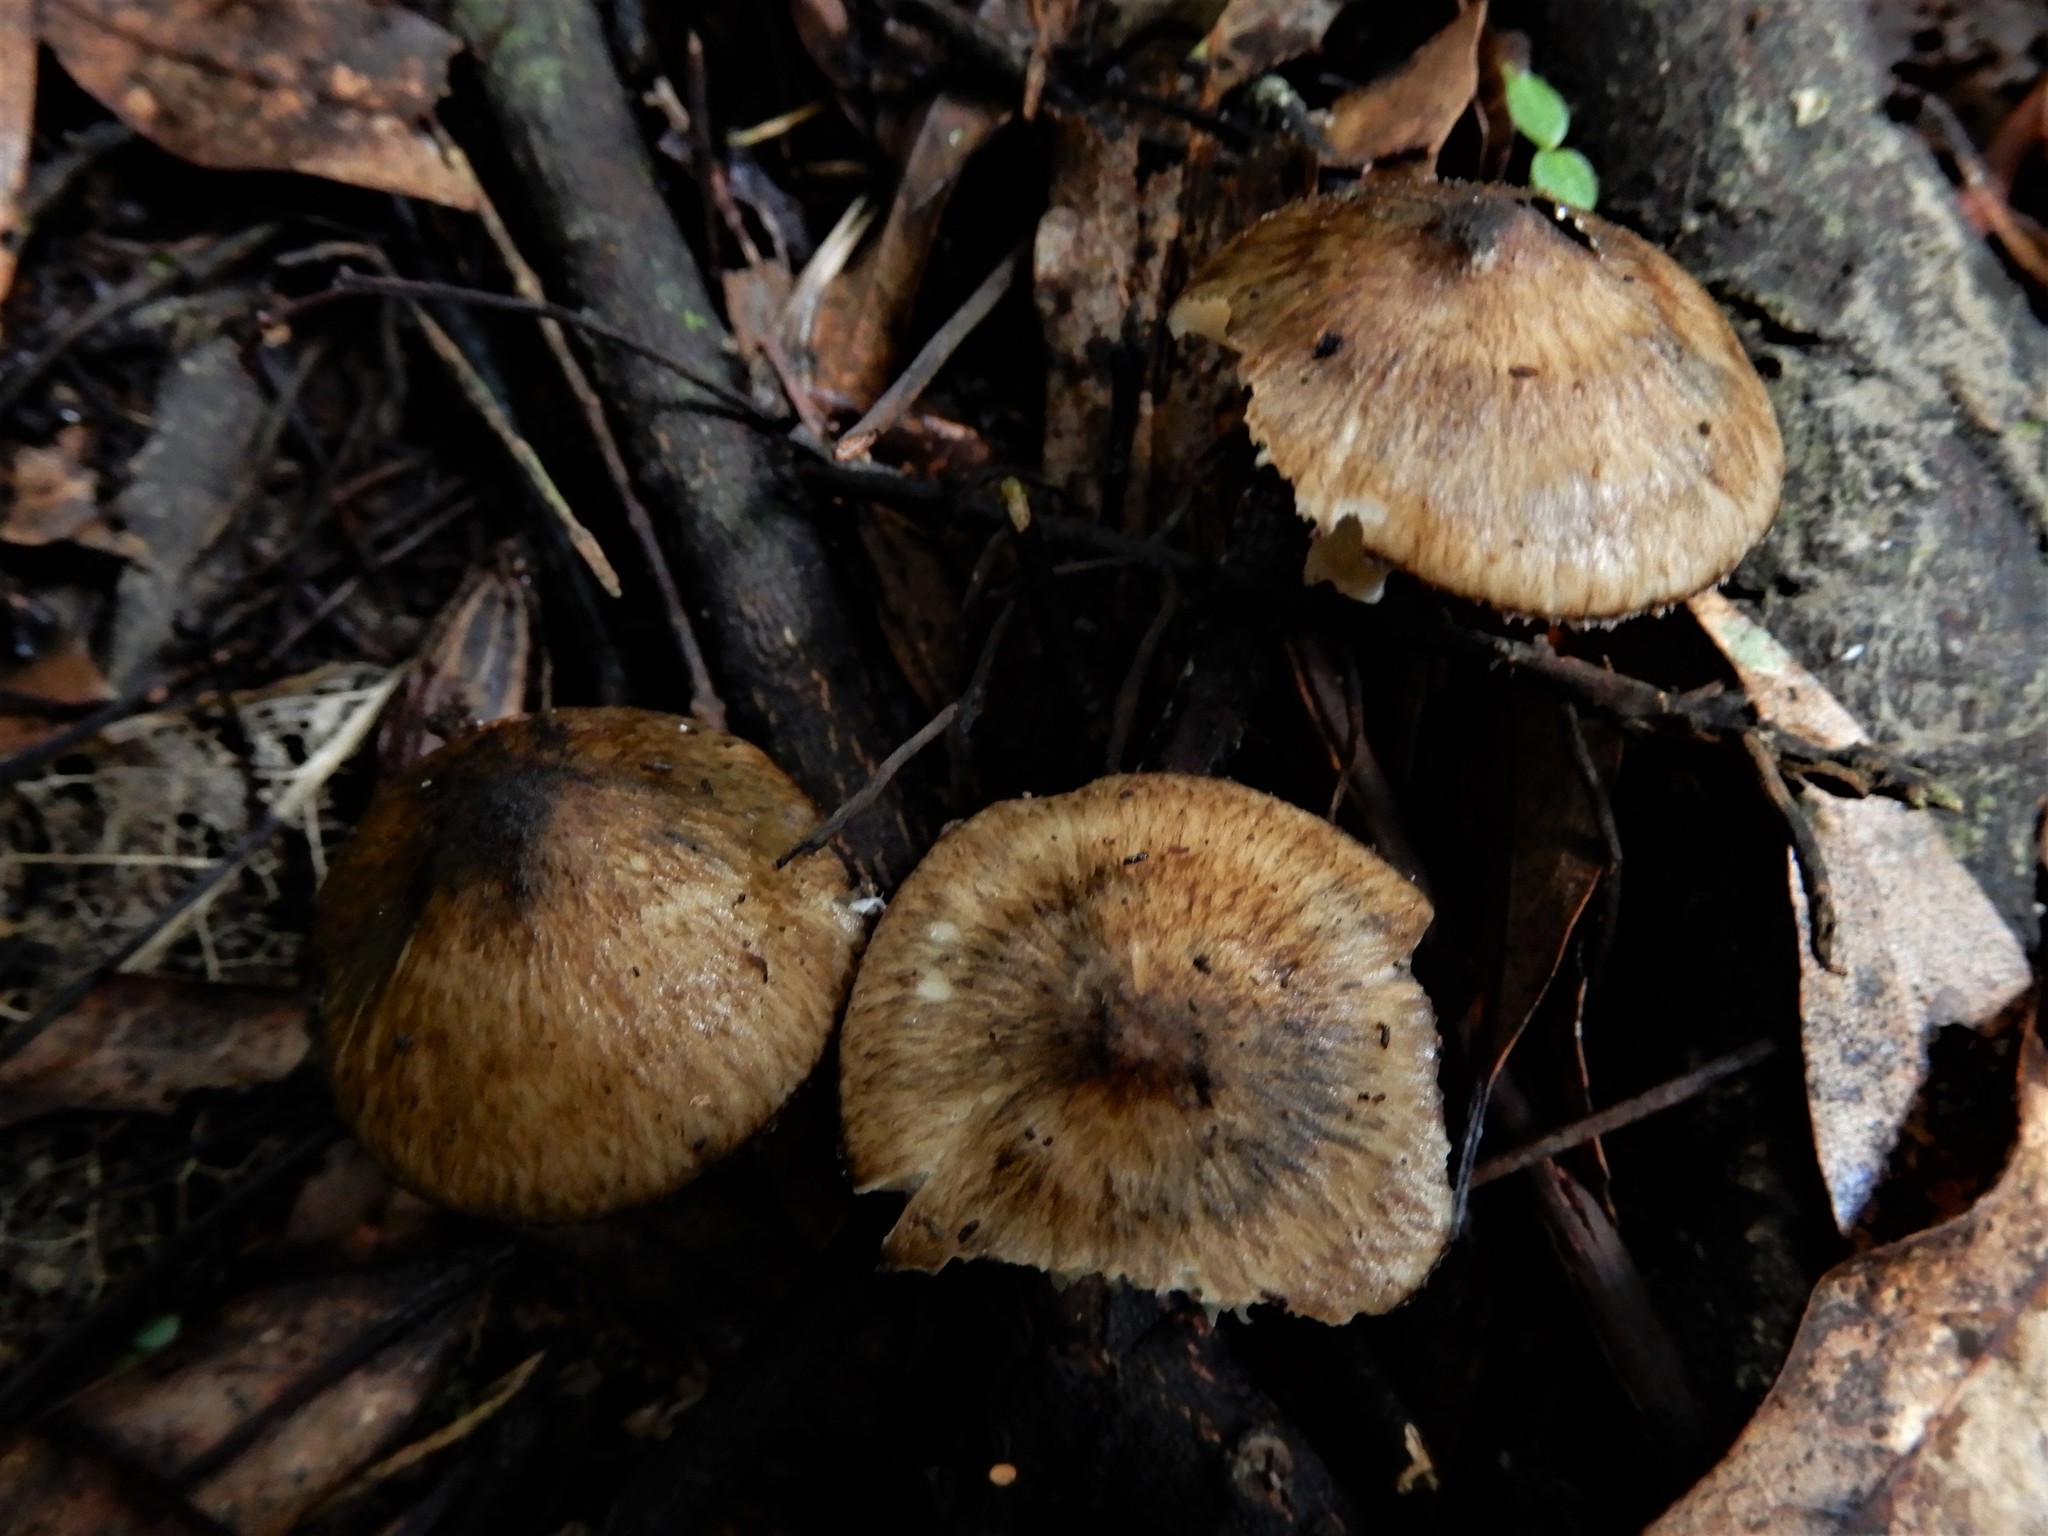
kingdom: Fungi
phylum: Basidiomycota
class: Agaricomycetes
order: Agaricales
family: Hygrophoraceae
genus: Cuphophyllus
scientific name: Cuphophyllus
